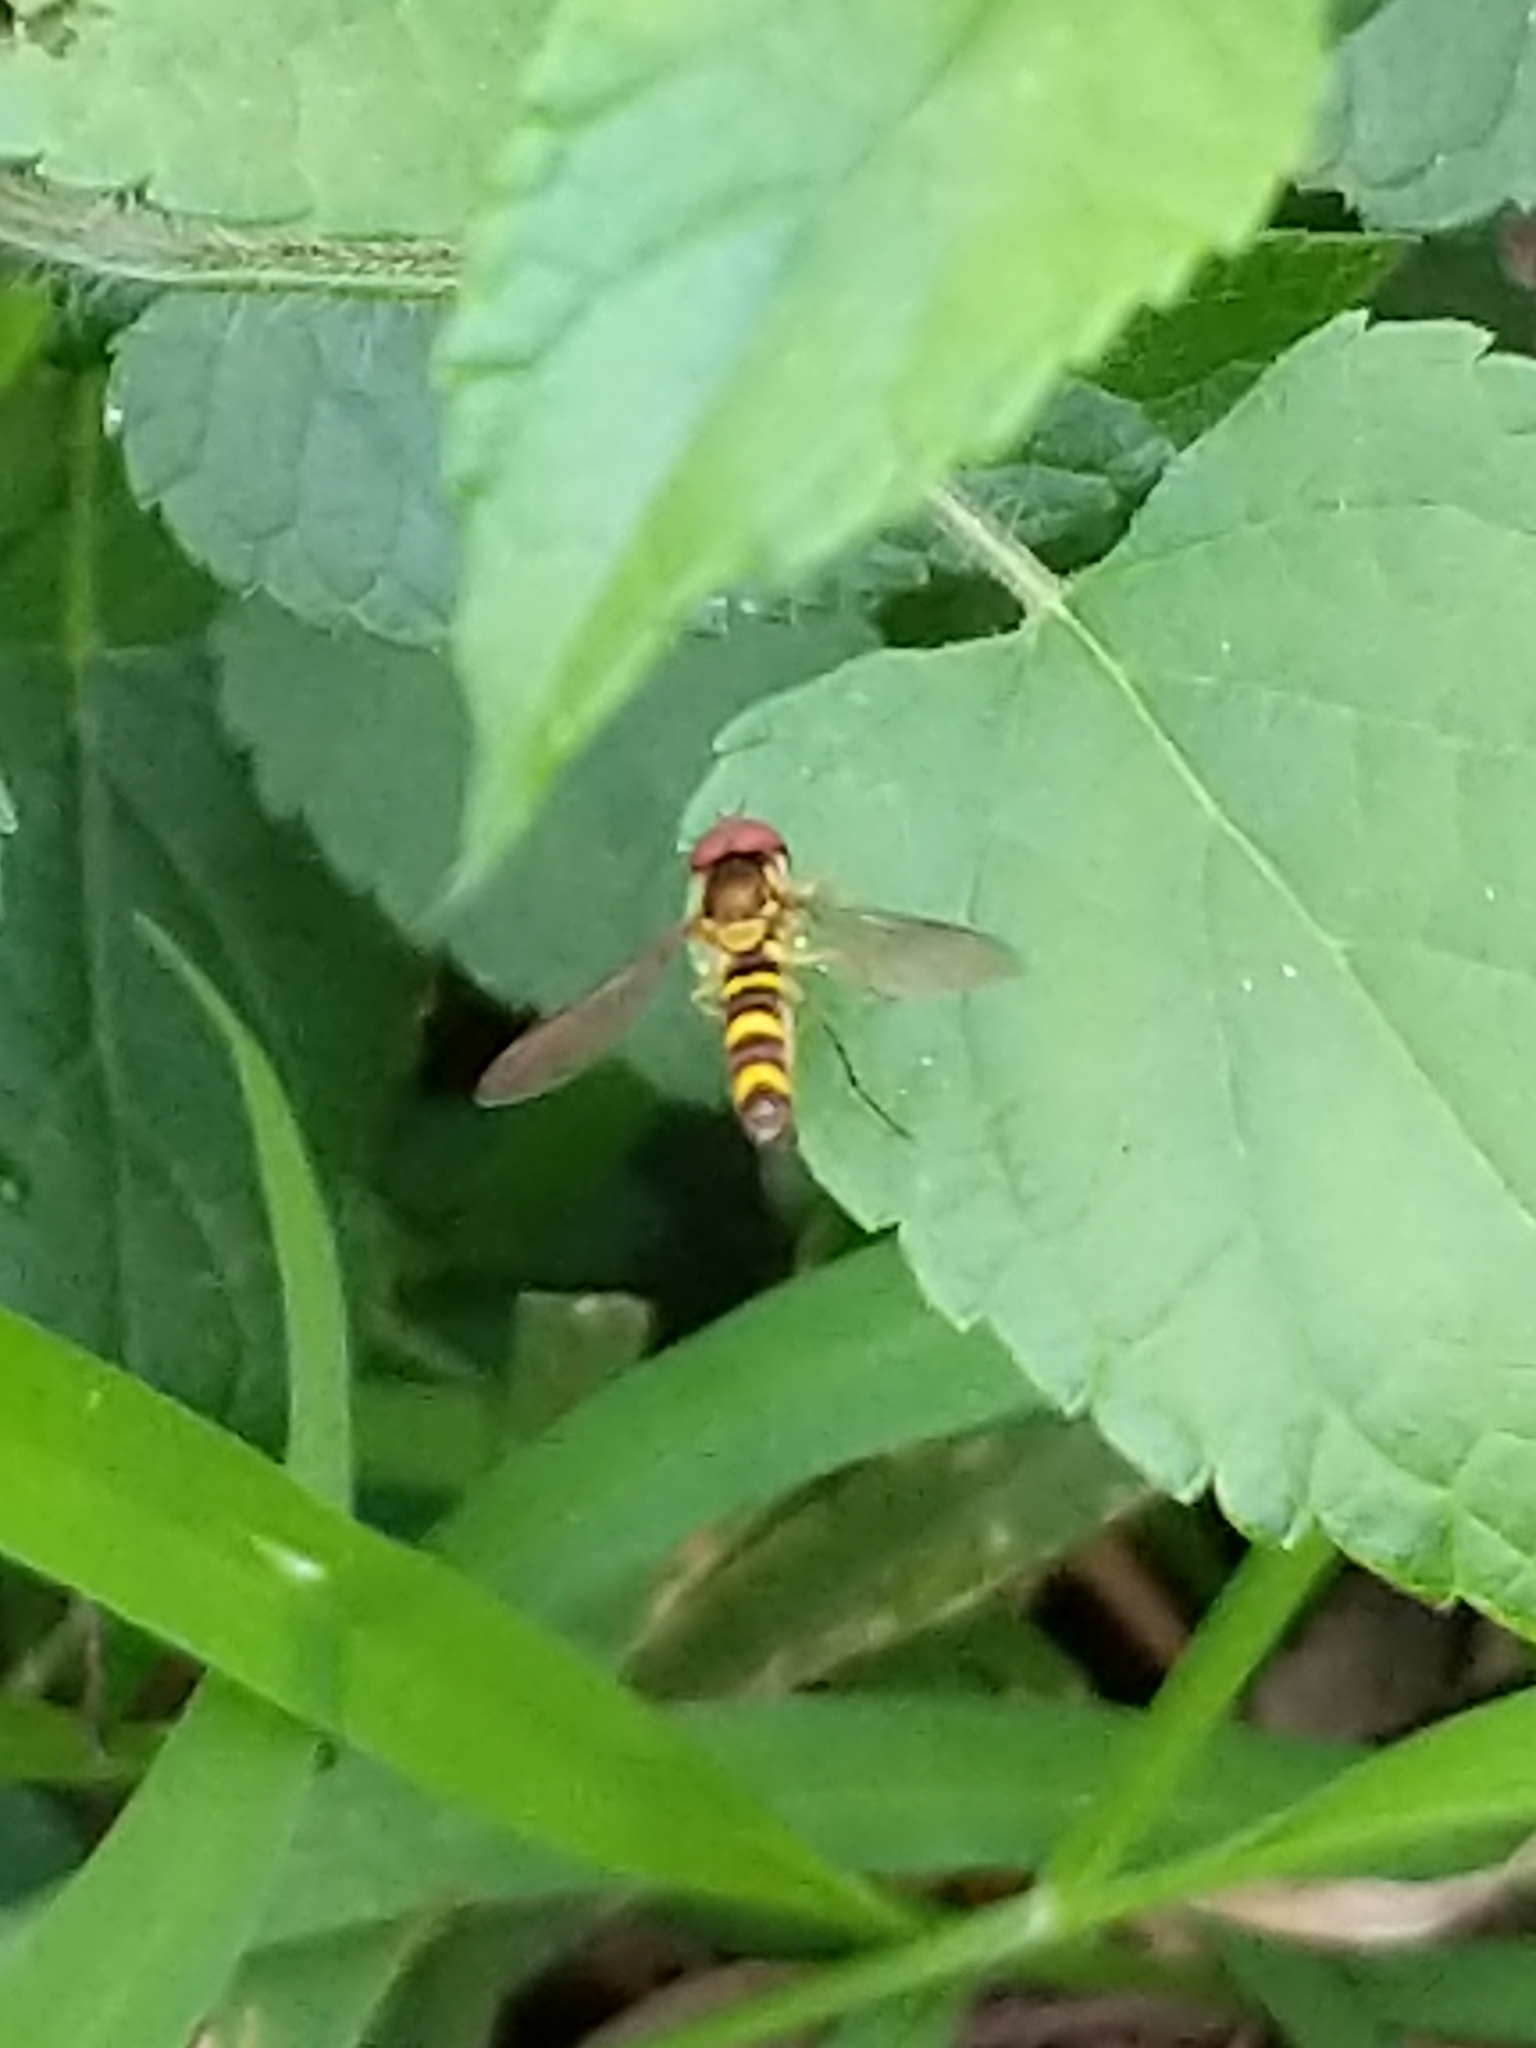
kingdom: Animalia
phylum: Arthropoda
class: Insecta
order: Diptera
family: Syrphidae
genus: Fazia
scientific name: Fazia micrura
